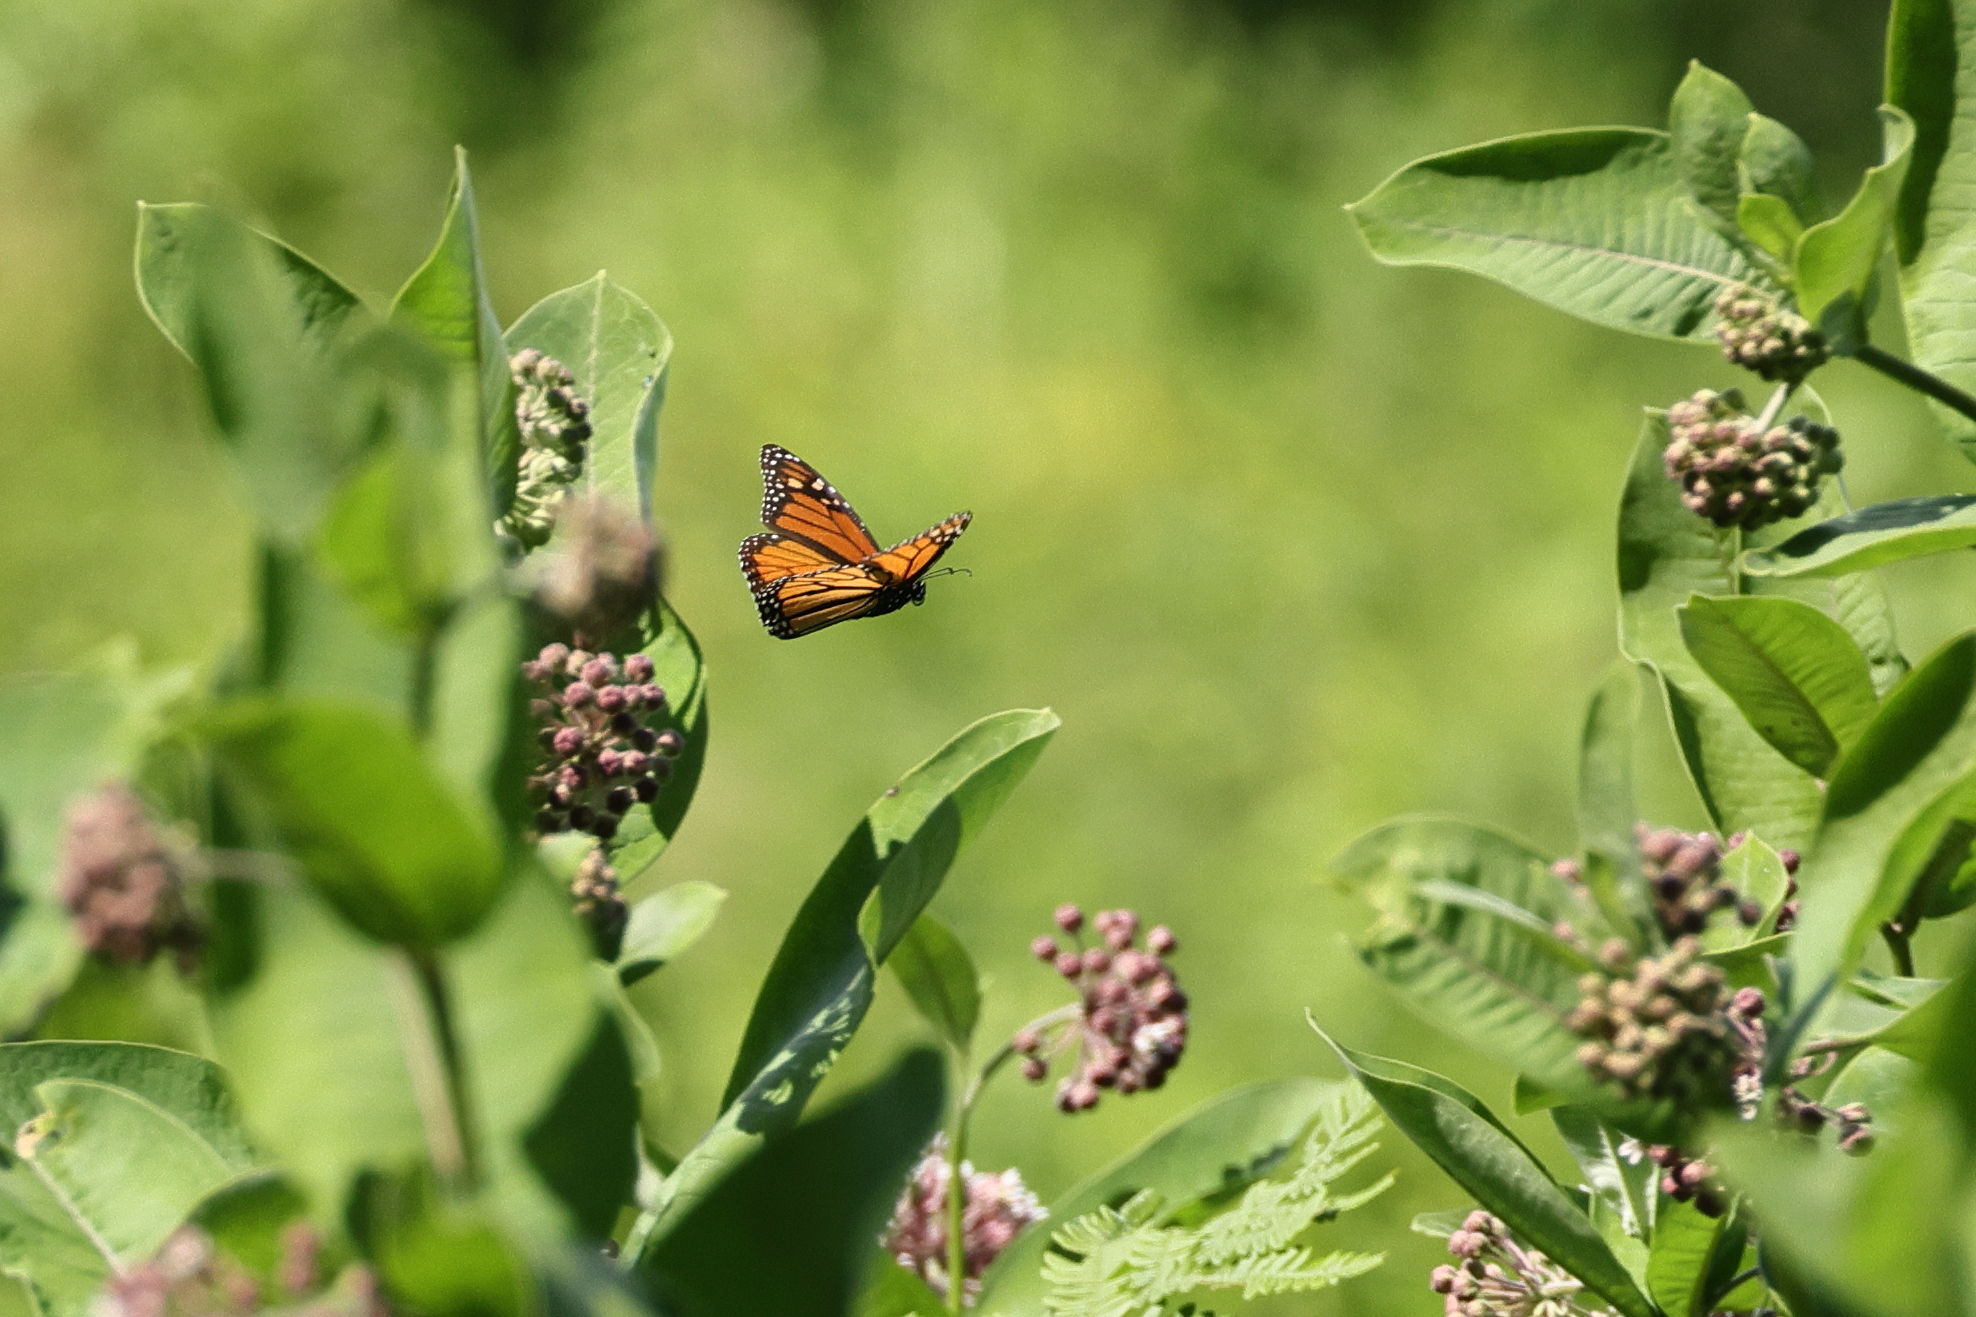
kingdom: Animalia
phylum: Arthropoda
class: Insecta
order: Lepidoptera
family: Nymphalidae
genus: Danaus
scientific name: Danaus plexippus
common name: Monarch
